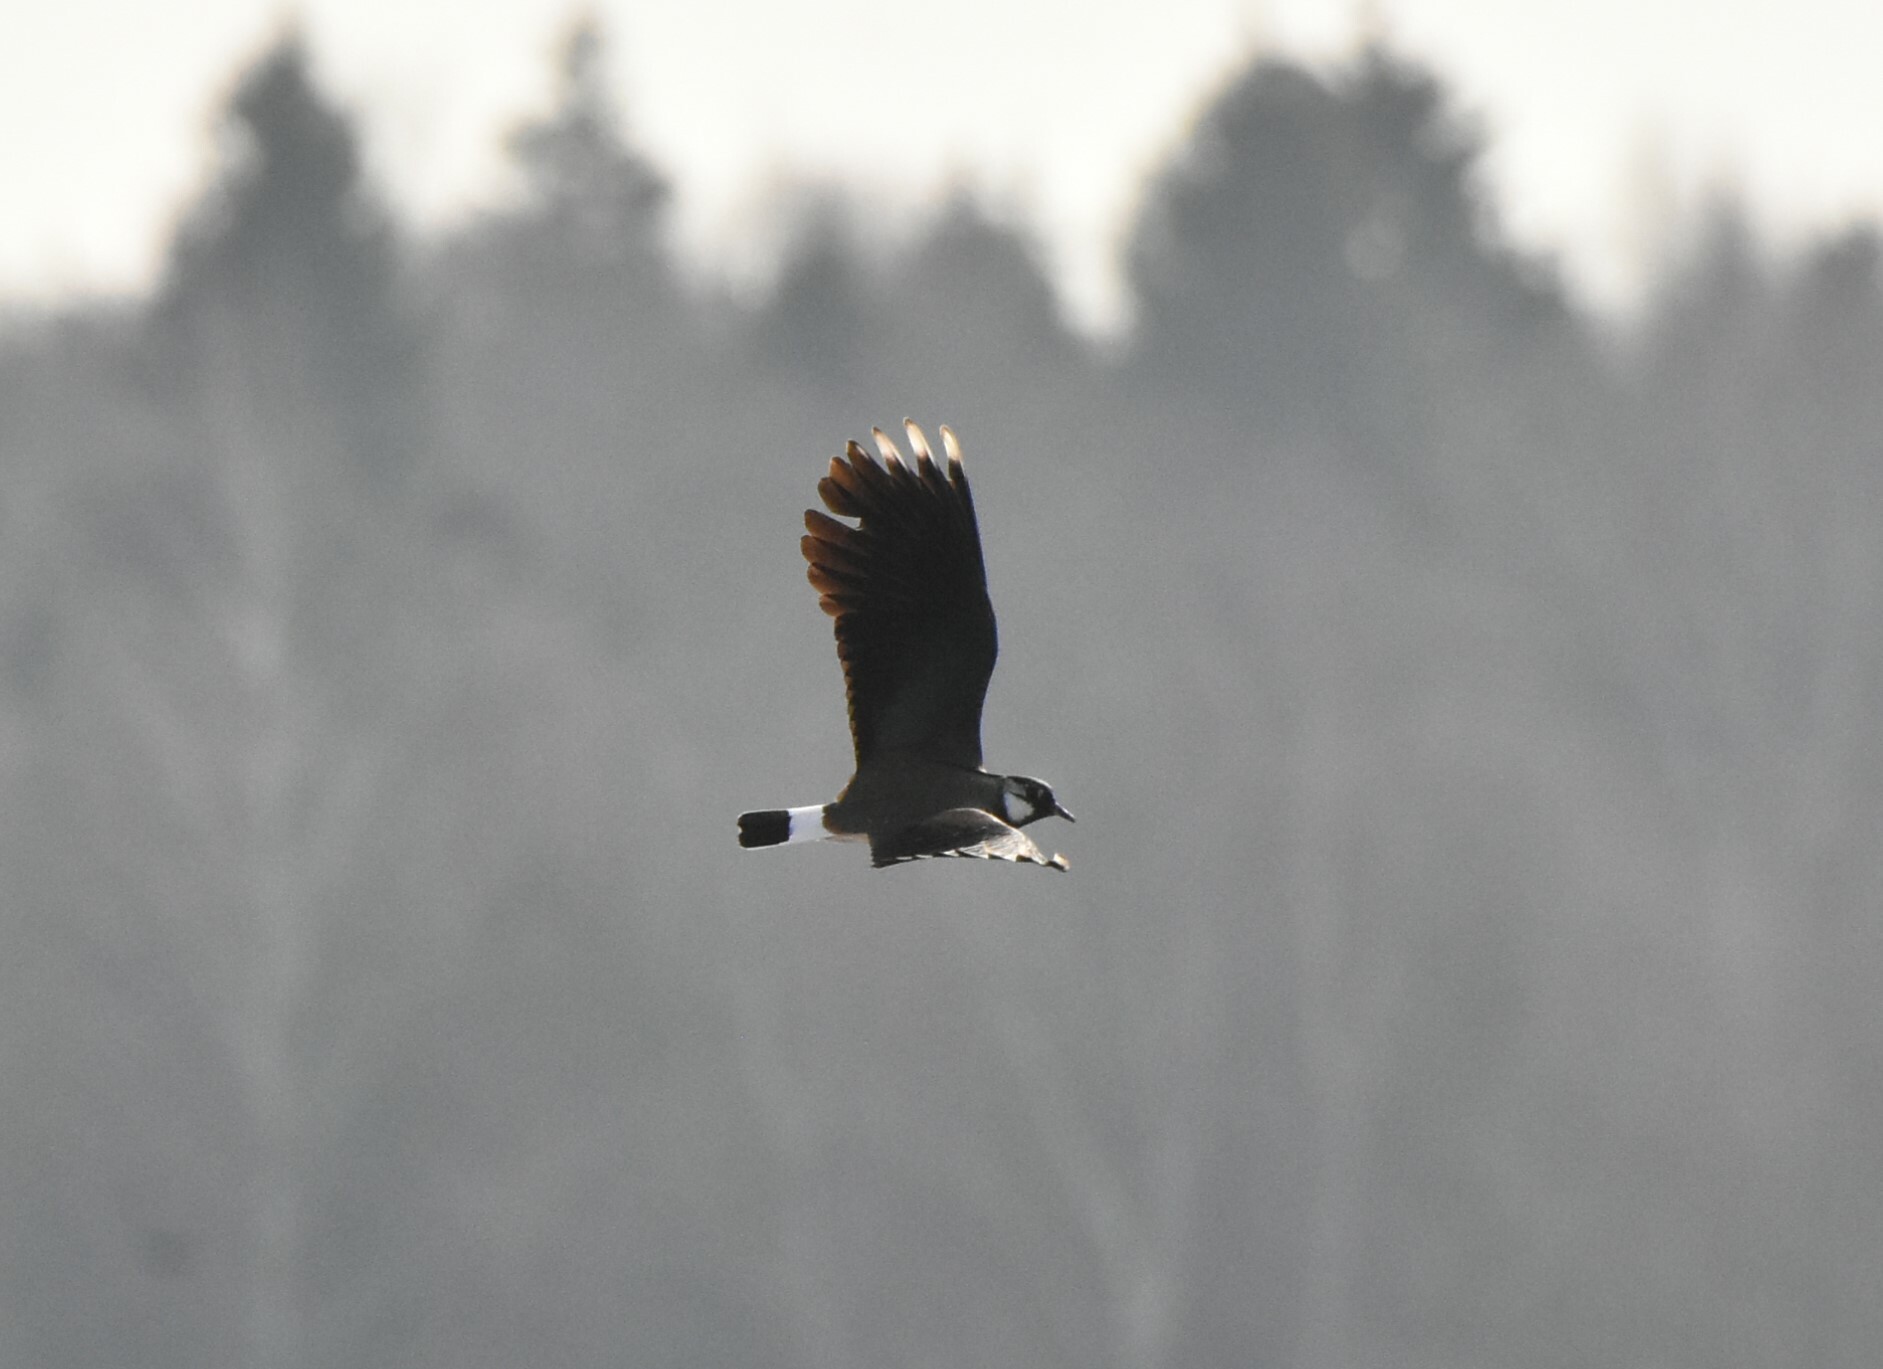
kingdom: Animalia
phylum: Chordata
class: Aves
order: Charadriiformes
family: Charadriidae
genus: Vanellus
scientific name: Vanellus vanellus
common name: Northern lapwing
